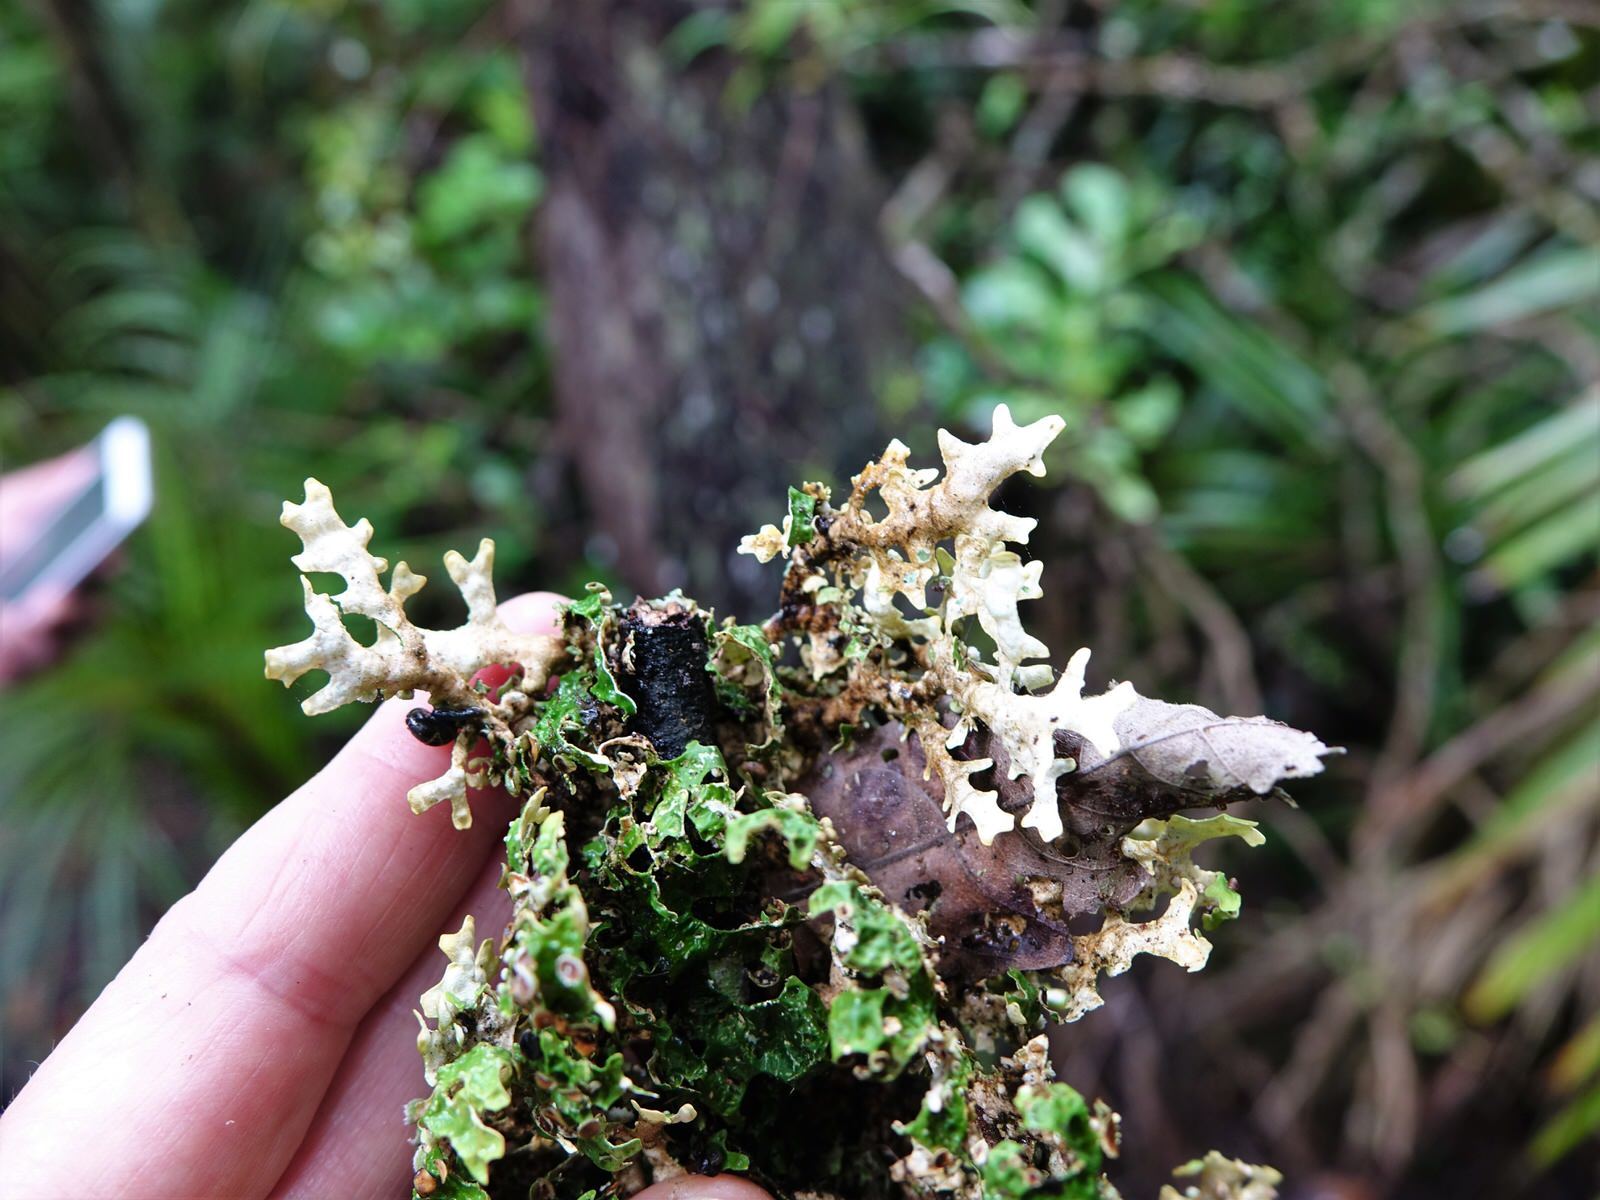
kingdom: Fungi
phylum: Ascomycota
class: Lecanoromycetes
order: Peltigerales
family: Lobariaceae
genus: Pseudocyphellaria
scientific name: Pseudocyphellaria rufovirescens
